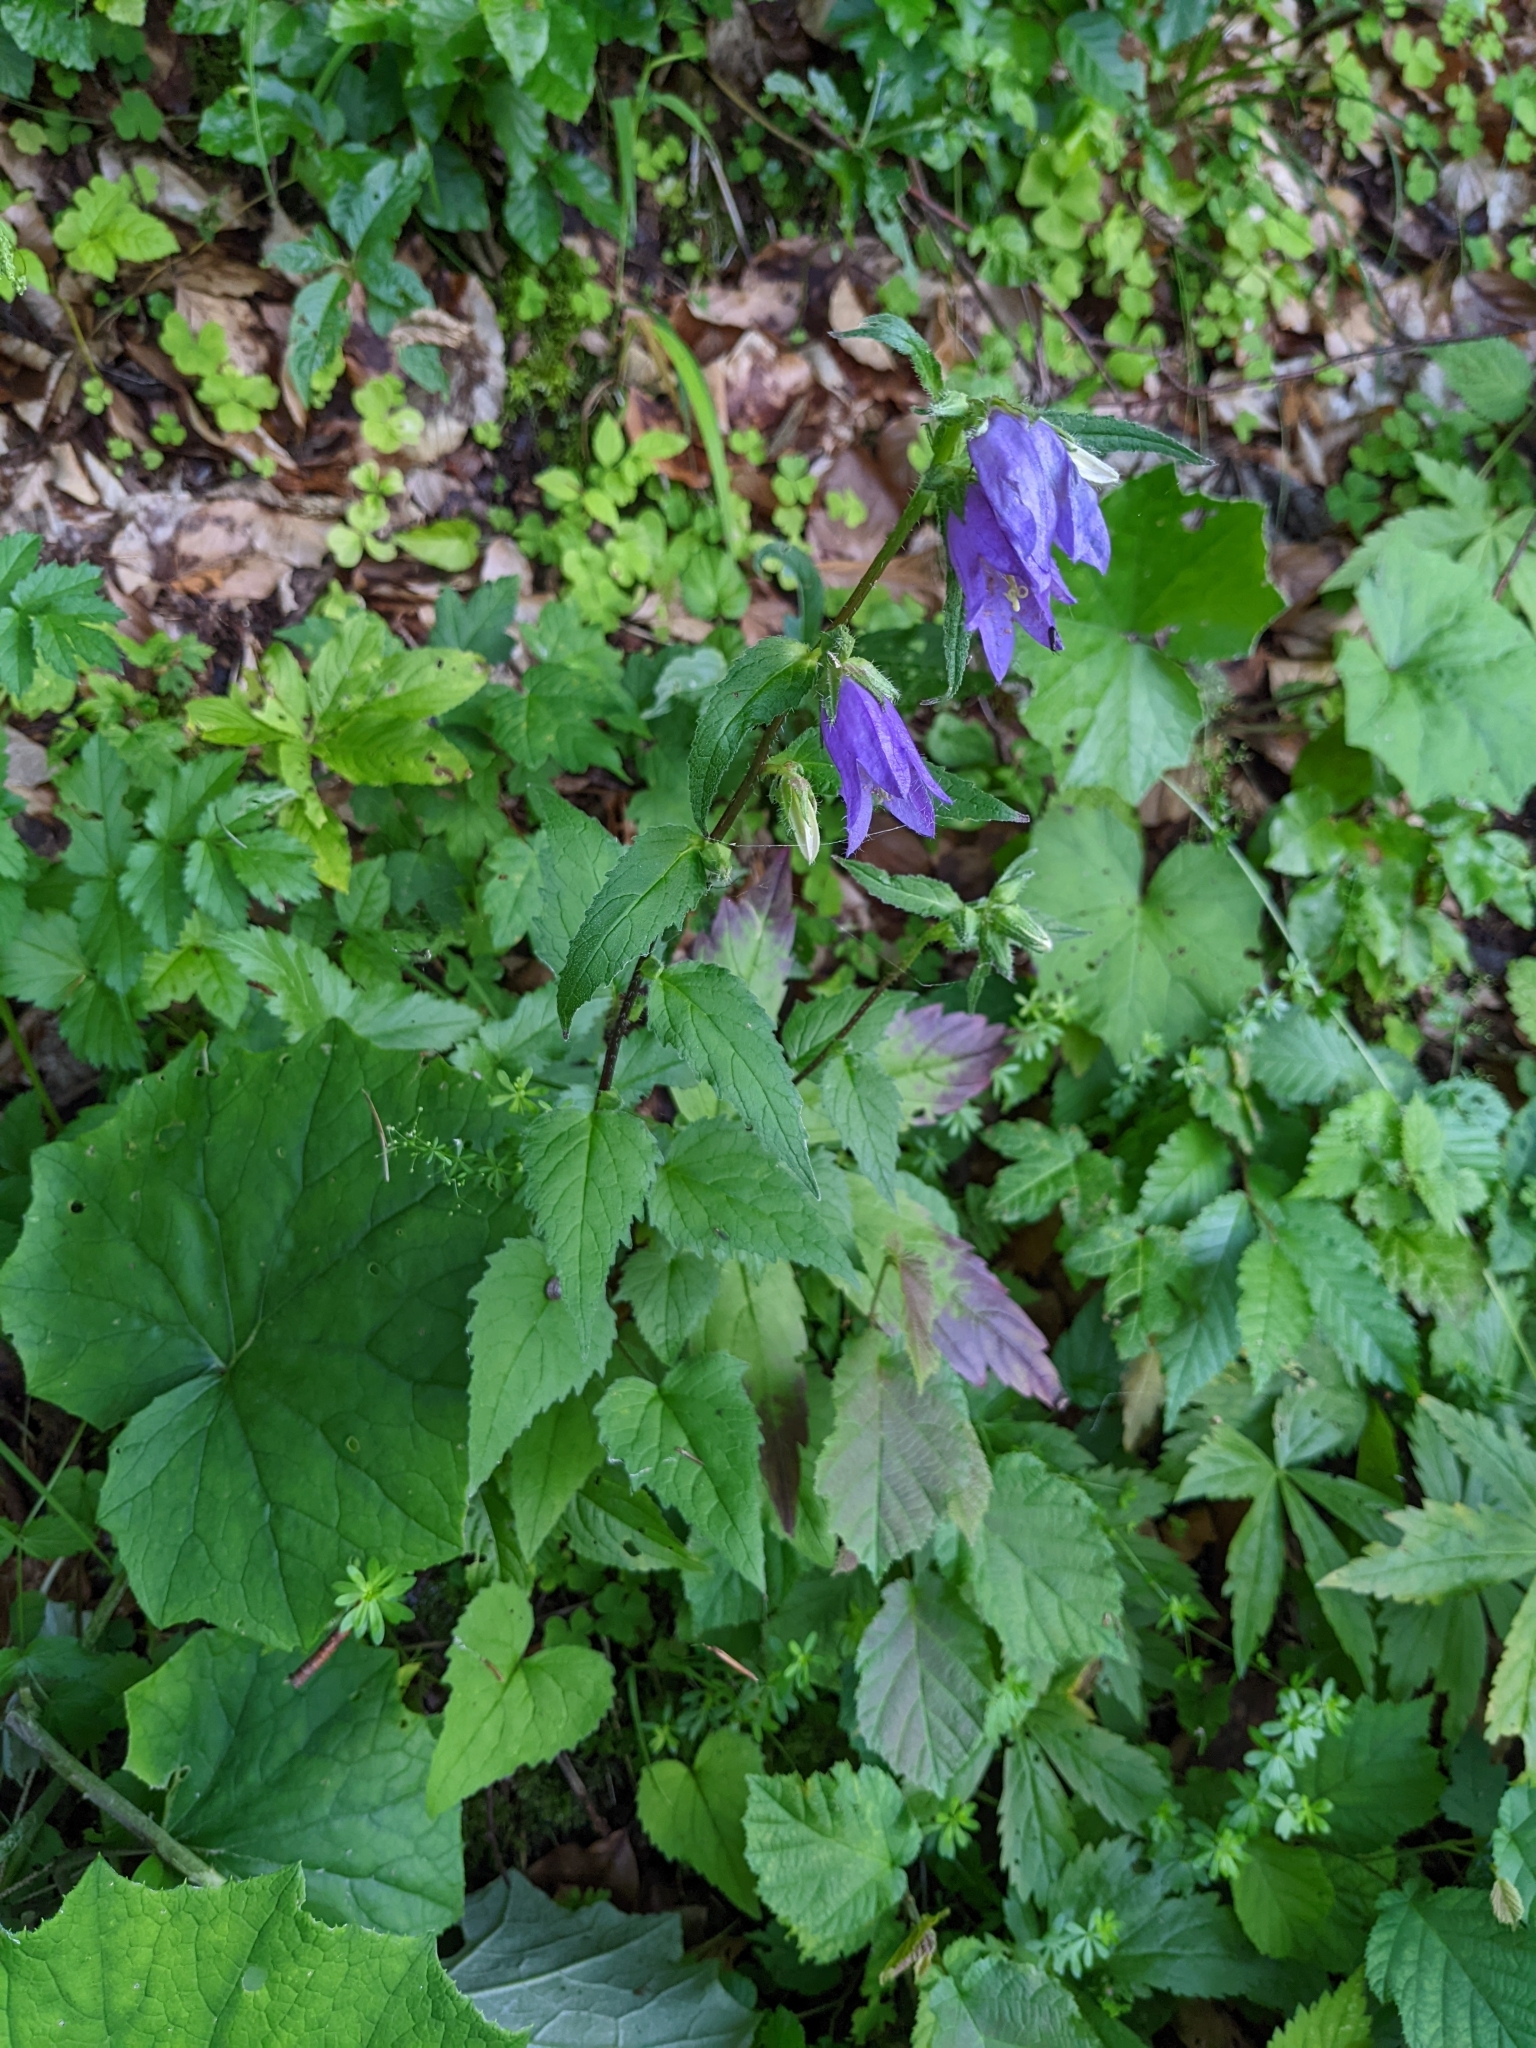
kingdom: Plantae
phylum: Tracheophyta
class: Magnoliopsida
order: Asterales
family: Campanulaceae
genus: Campanula
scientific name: Campanula trachelium
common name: Nettle-leaved bellflower
